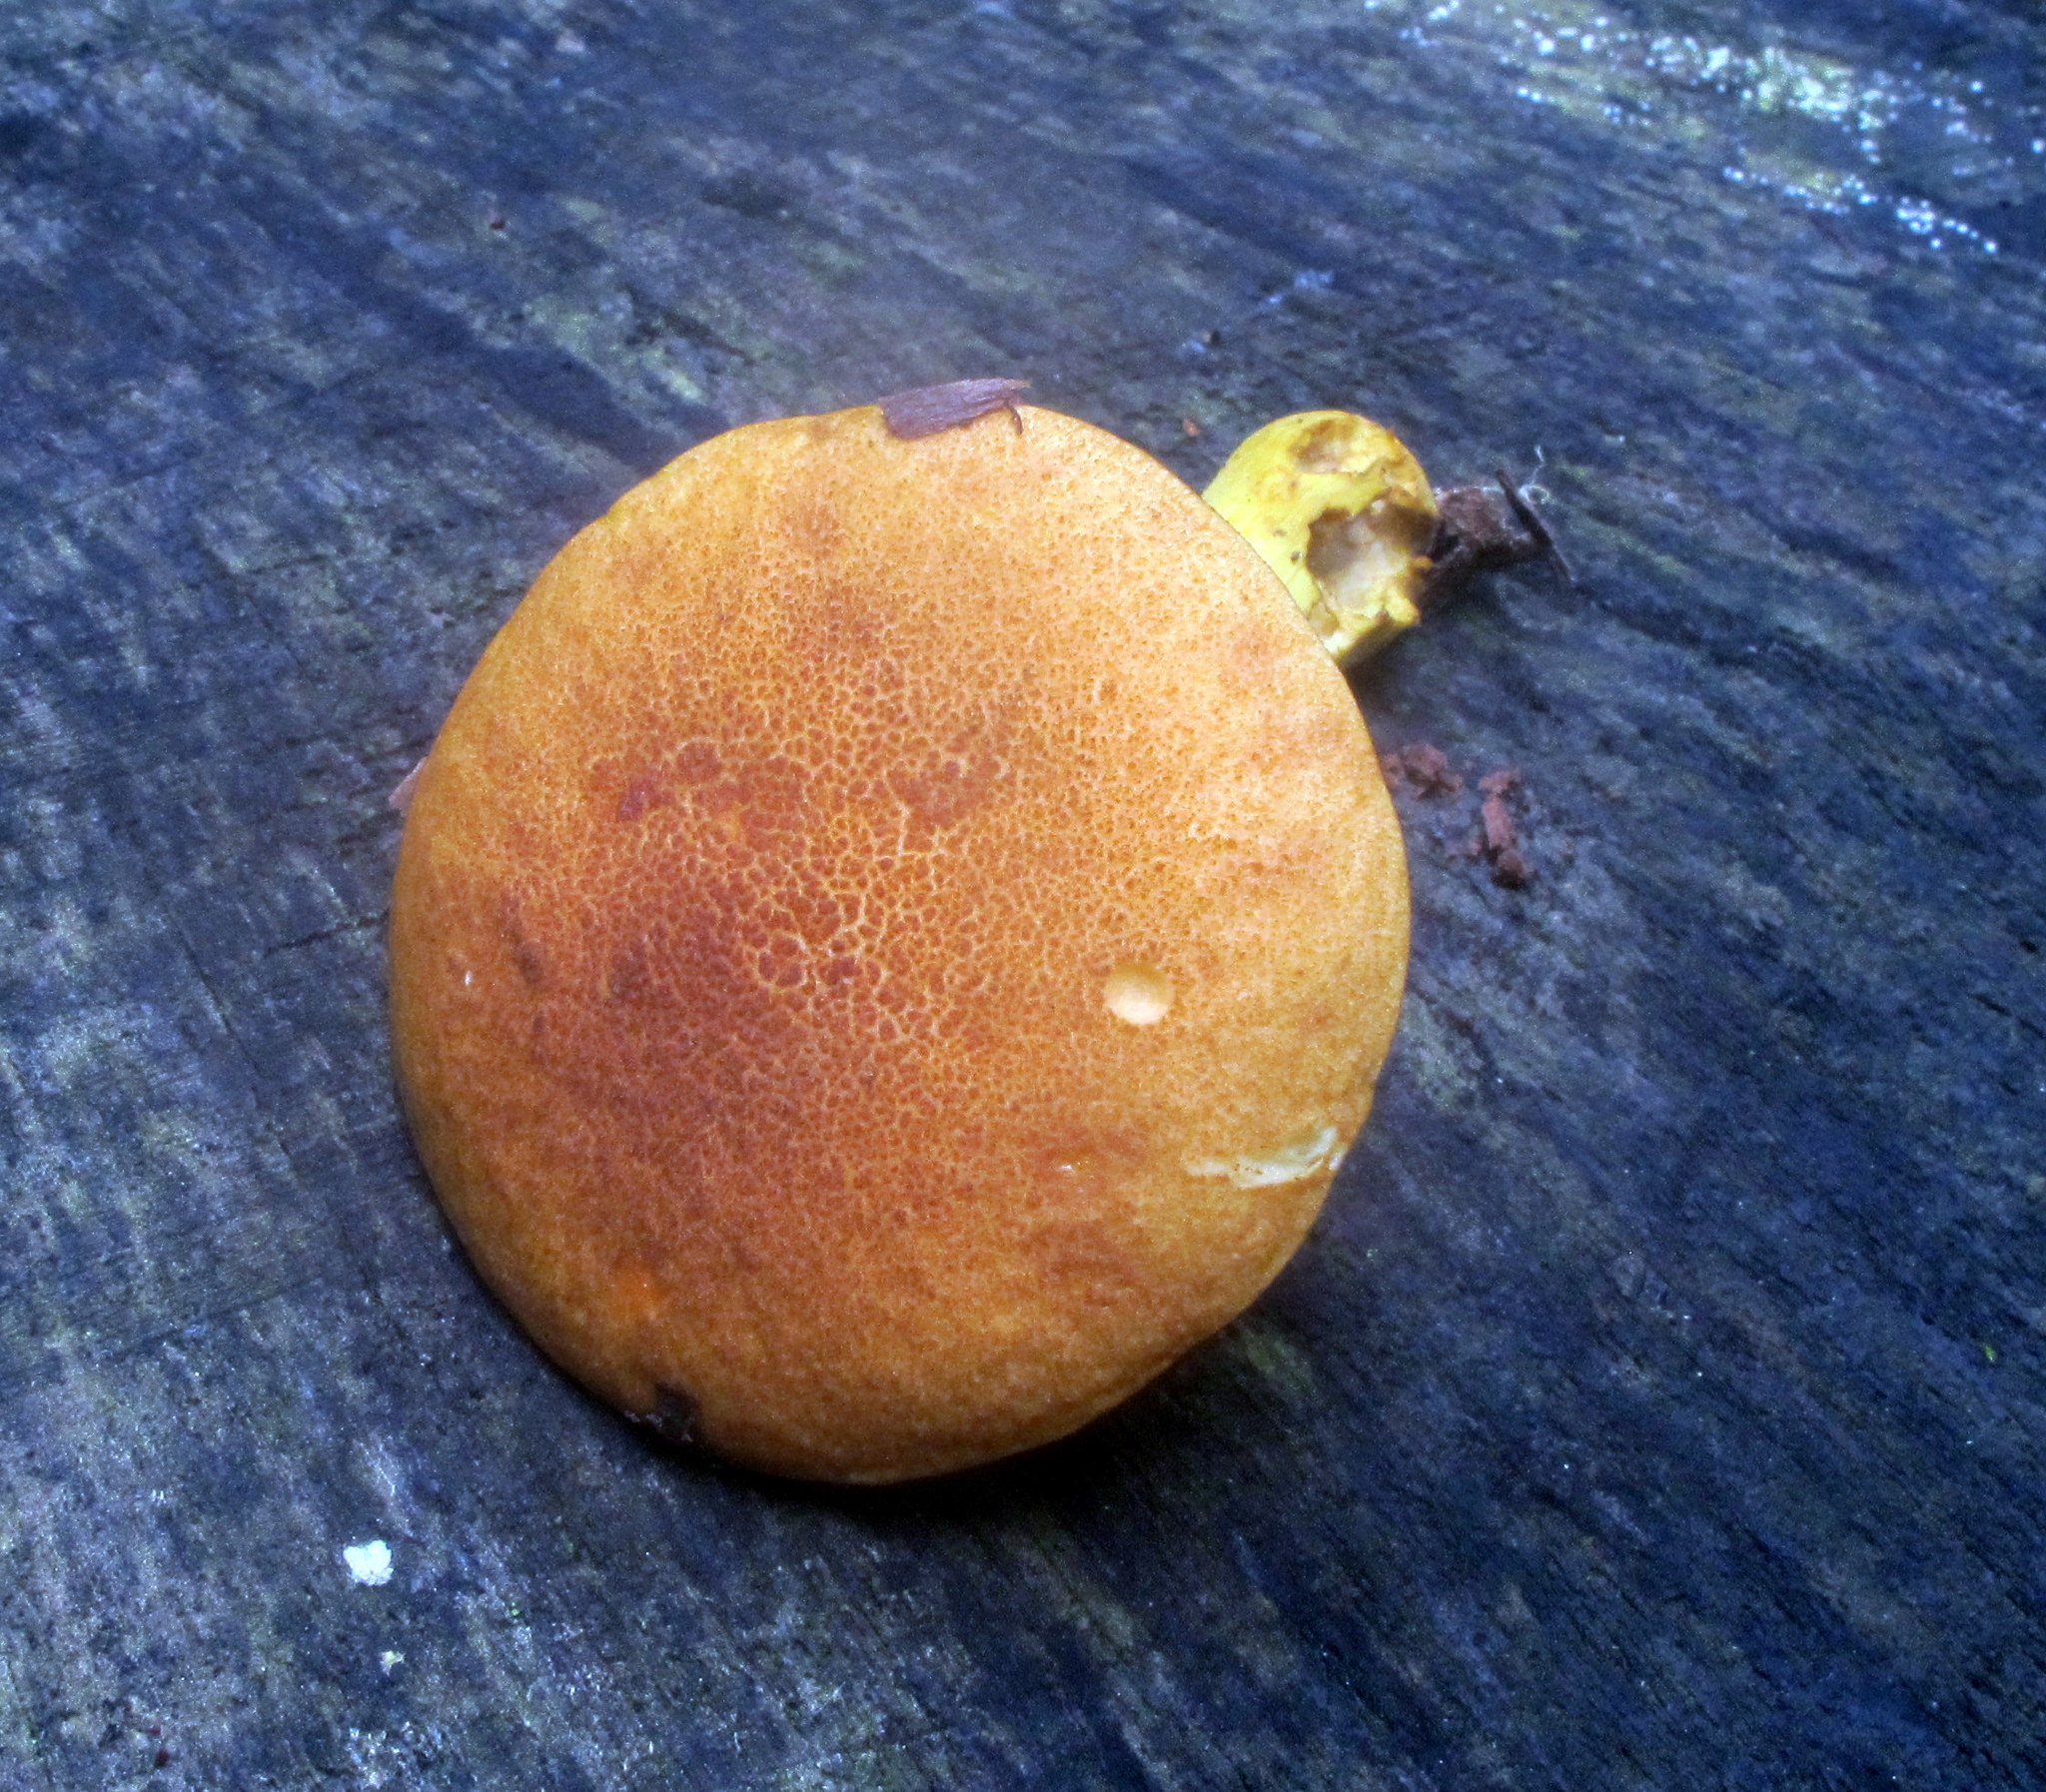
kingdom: Fungi
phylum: Basidiomycota
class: Agaricomycetes
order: Boletales
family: Boletaceae
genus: Aureoboletus
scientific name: Aureoboletus roxanae
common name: Roxane's bolete
